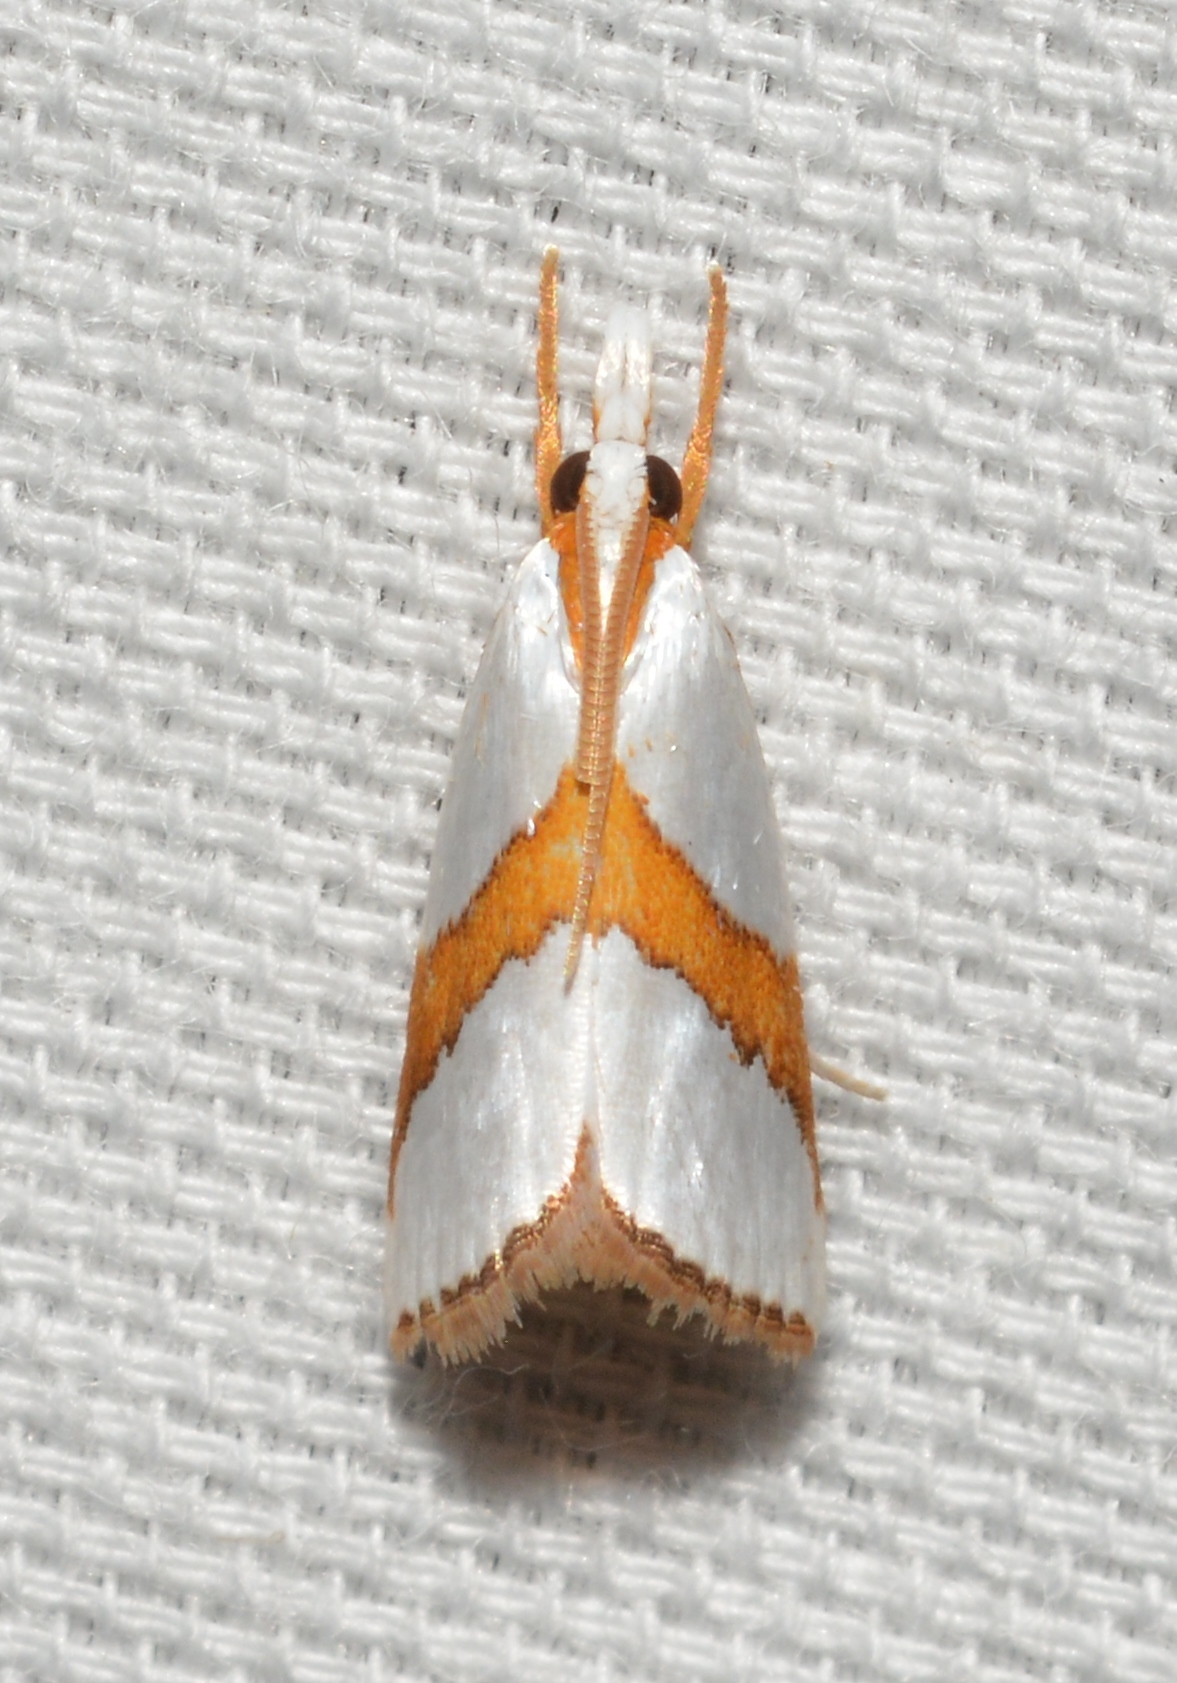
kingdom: Animalia
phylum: Arthropoda
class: Insecta
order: Lepidoptera
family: Crambidae
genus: Vaxi
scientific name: Vaxi critica
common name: Straight-lined vaxi moth
